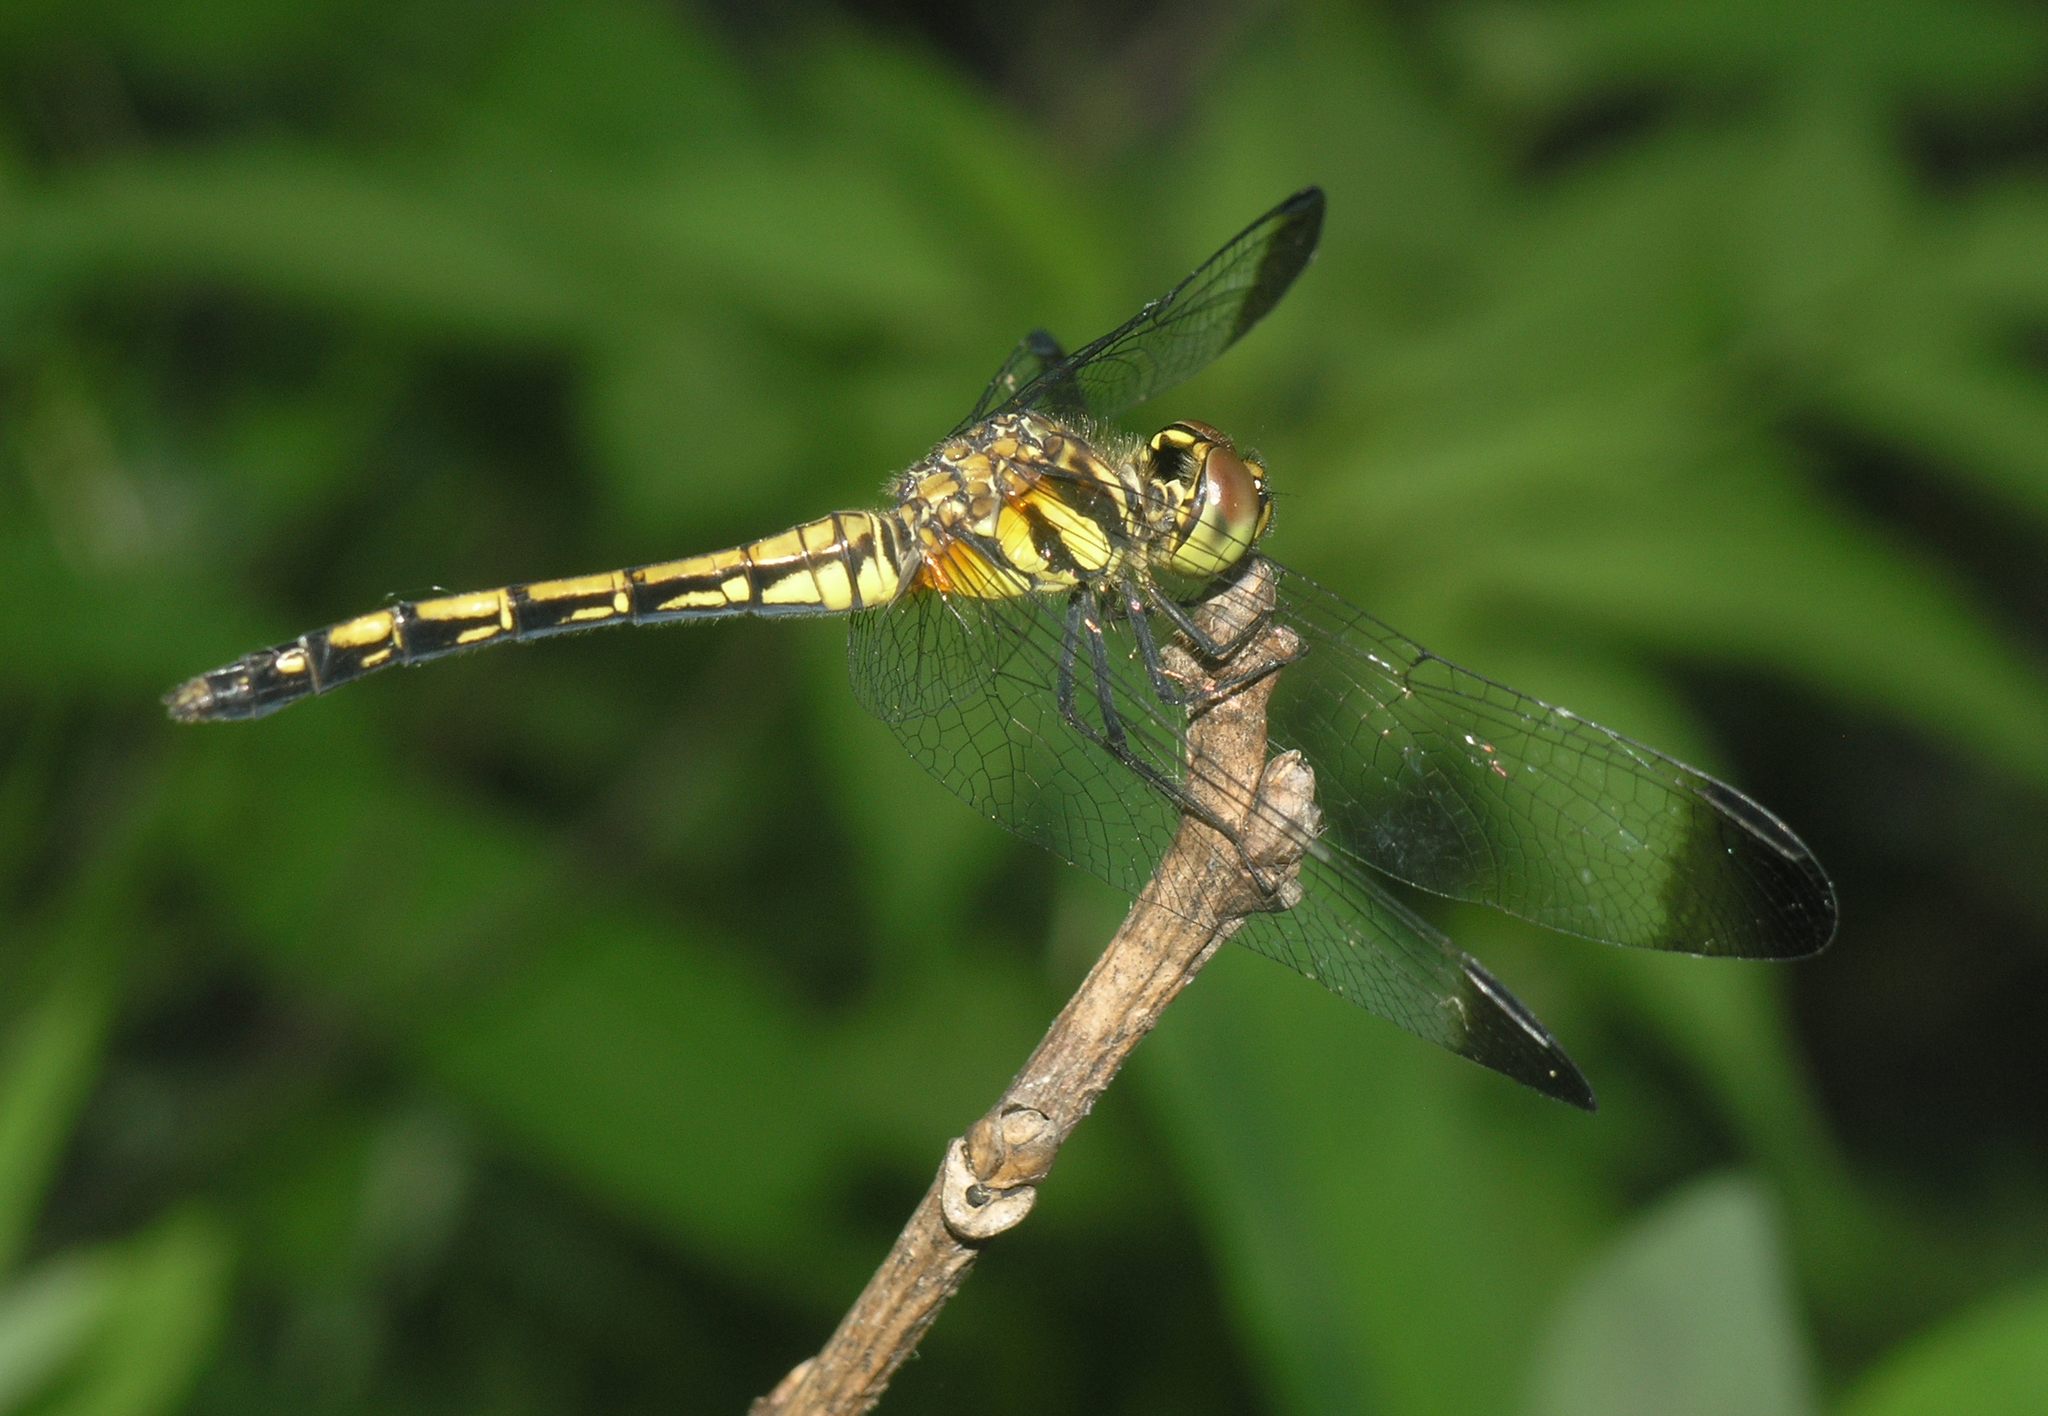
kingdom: Animalia
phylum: Arthropoda
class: Insecta
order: Odonata
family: Libellulidae
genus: Sympetrum
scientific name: Sympetrum infuscatum
